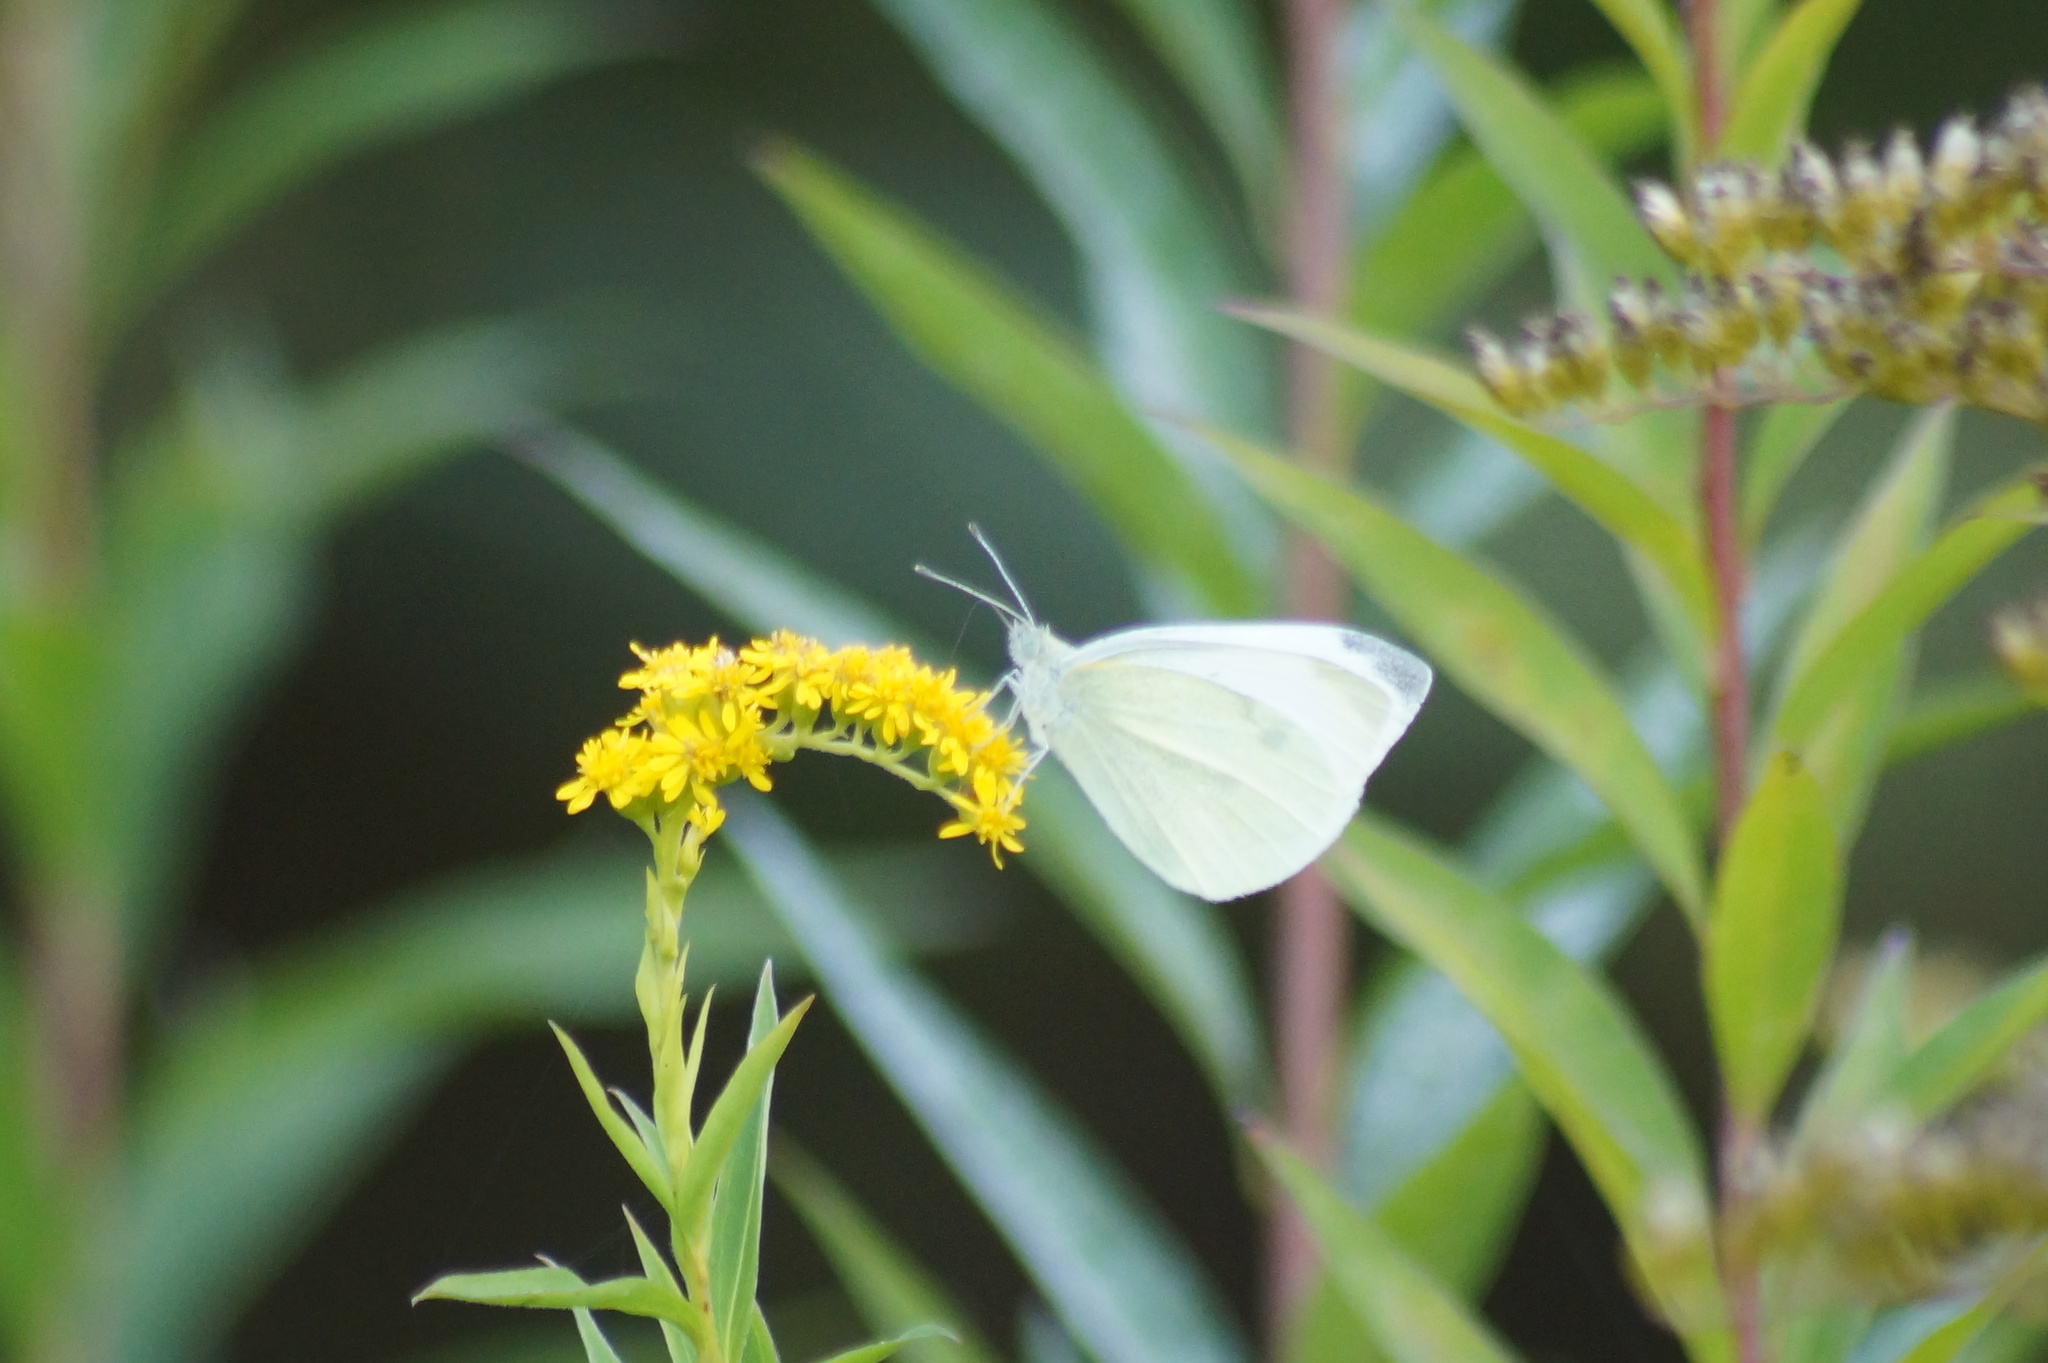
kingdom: Animalia
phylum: Arthropoda
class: Insecta
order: Lepidoptera
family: Pieridae
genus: Pieris
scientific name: Pieris rapae
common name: Small white
